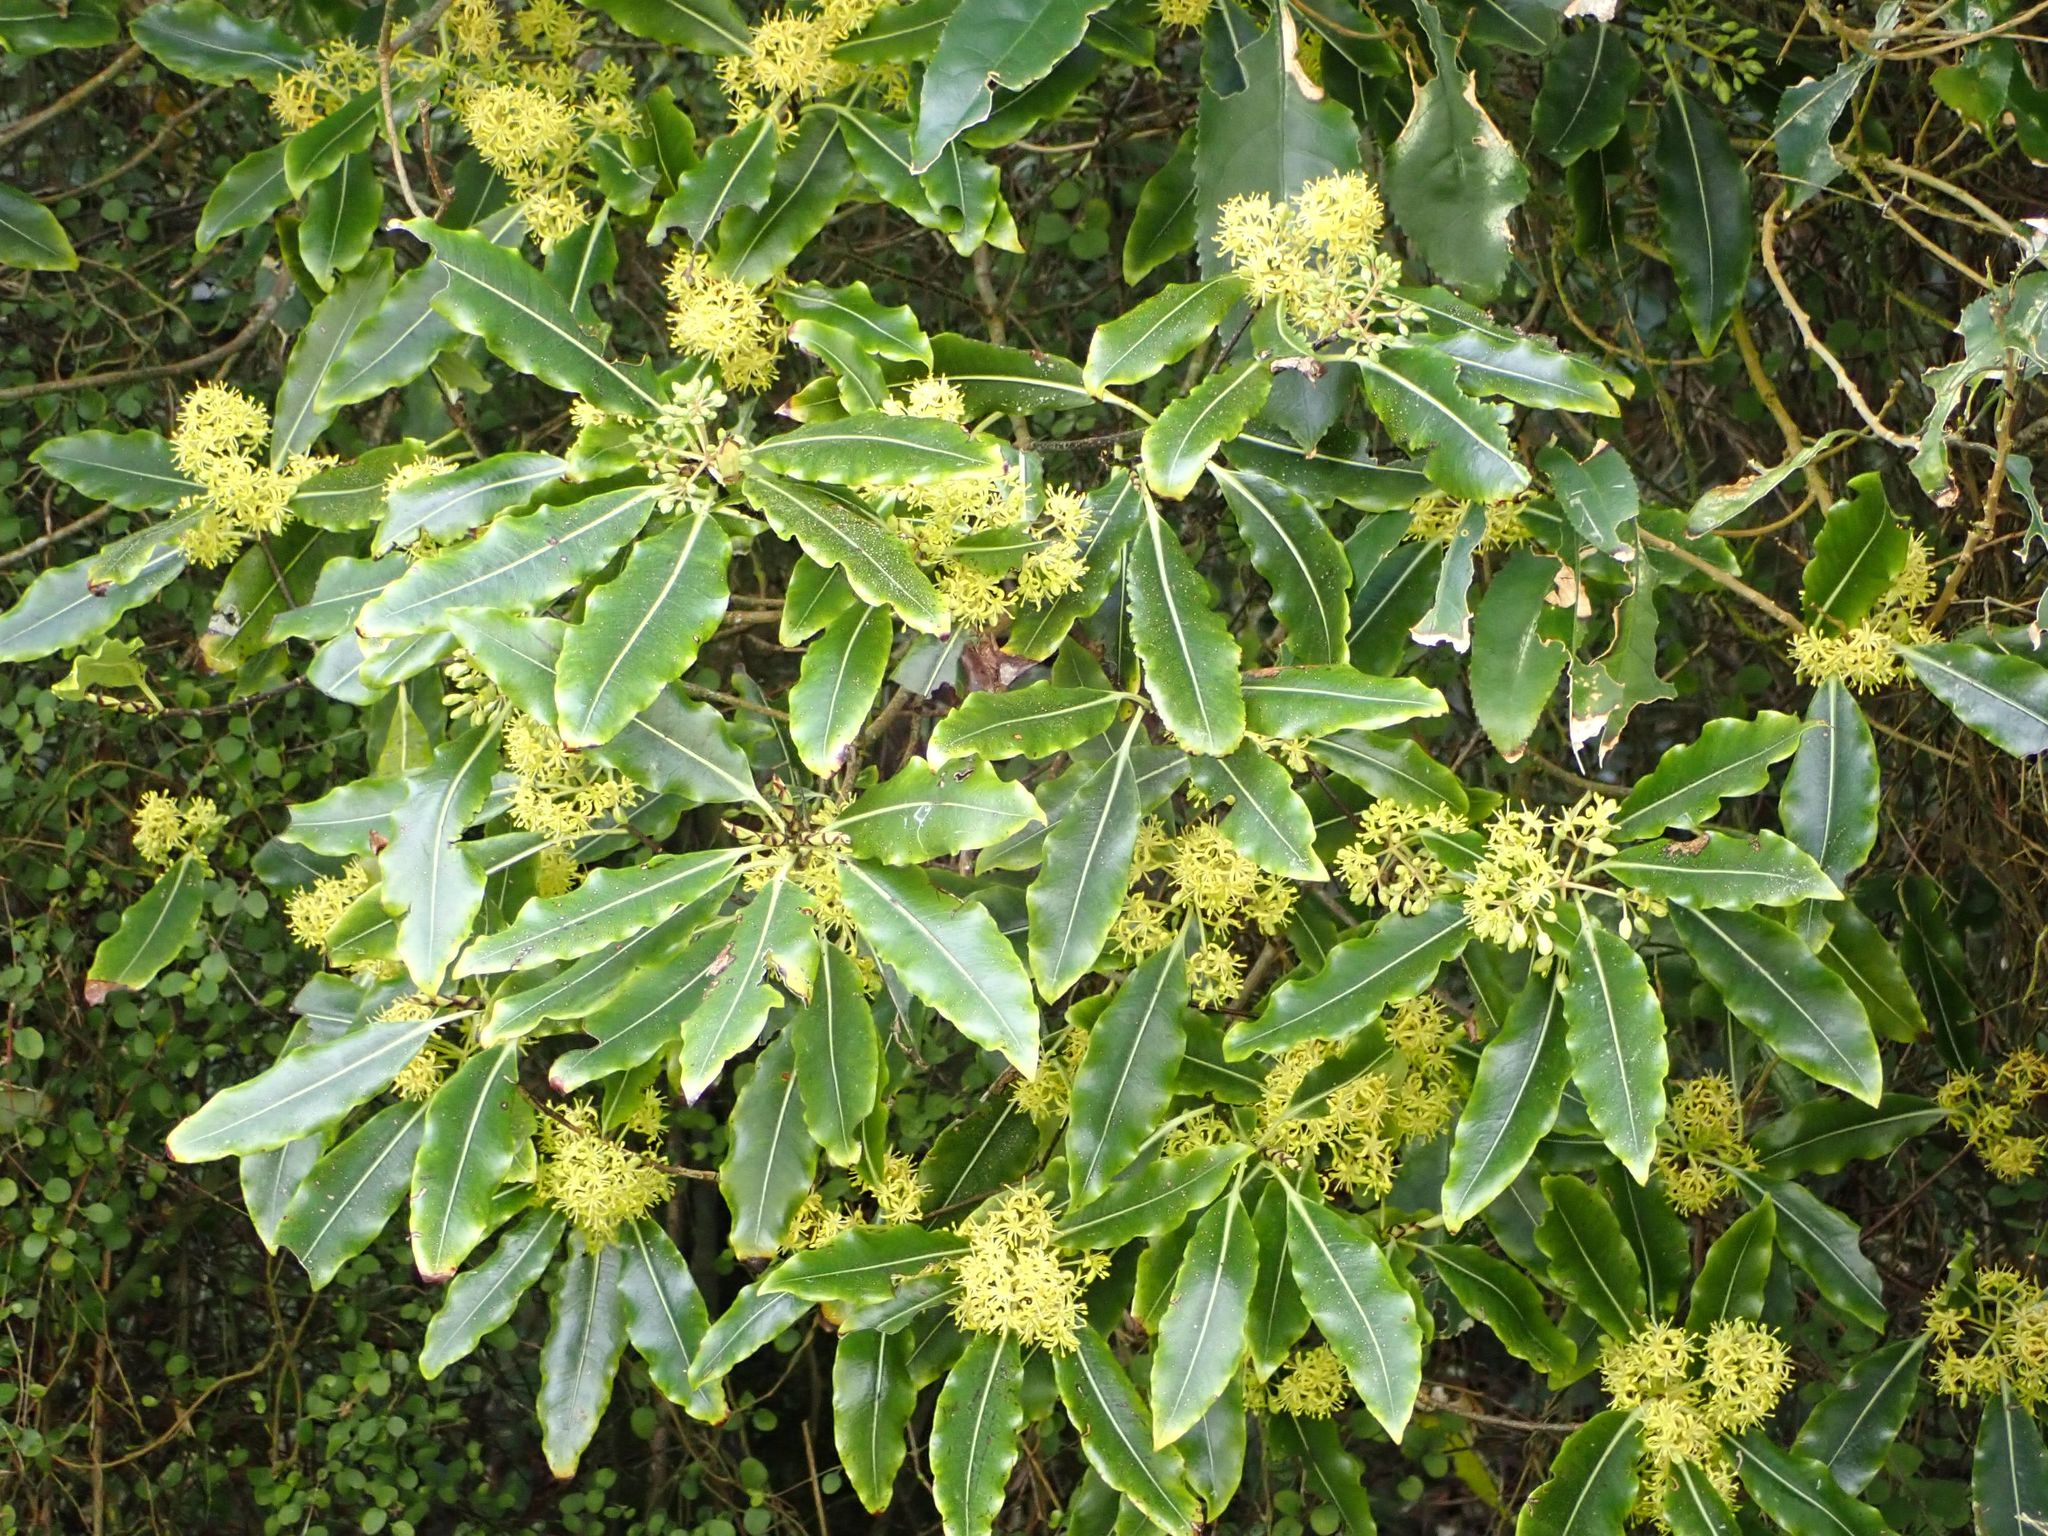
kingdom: Plantae
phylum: Tracheophyta
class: Magnoliopsida
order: Apiales
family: Pittosporaceae
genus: Pittosporum
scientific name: Pittosporum eugenioides
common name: Lemonwood
